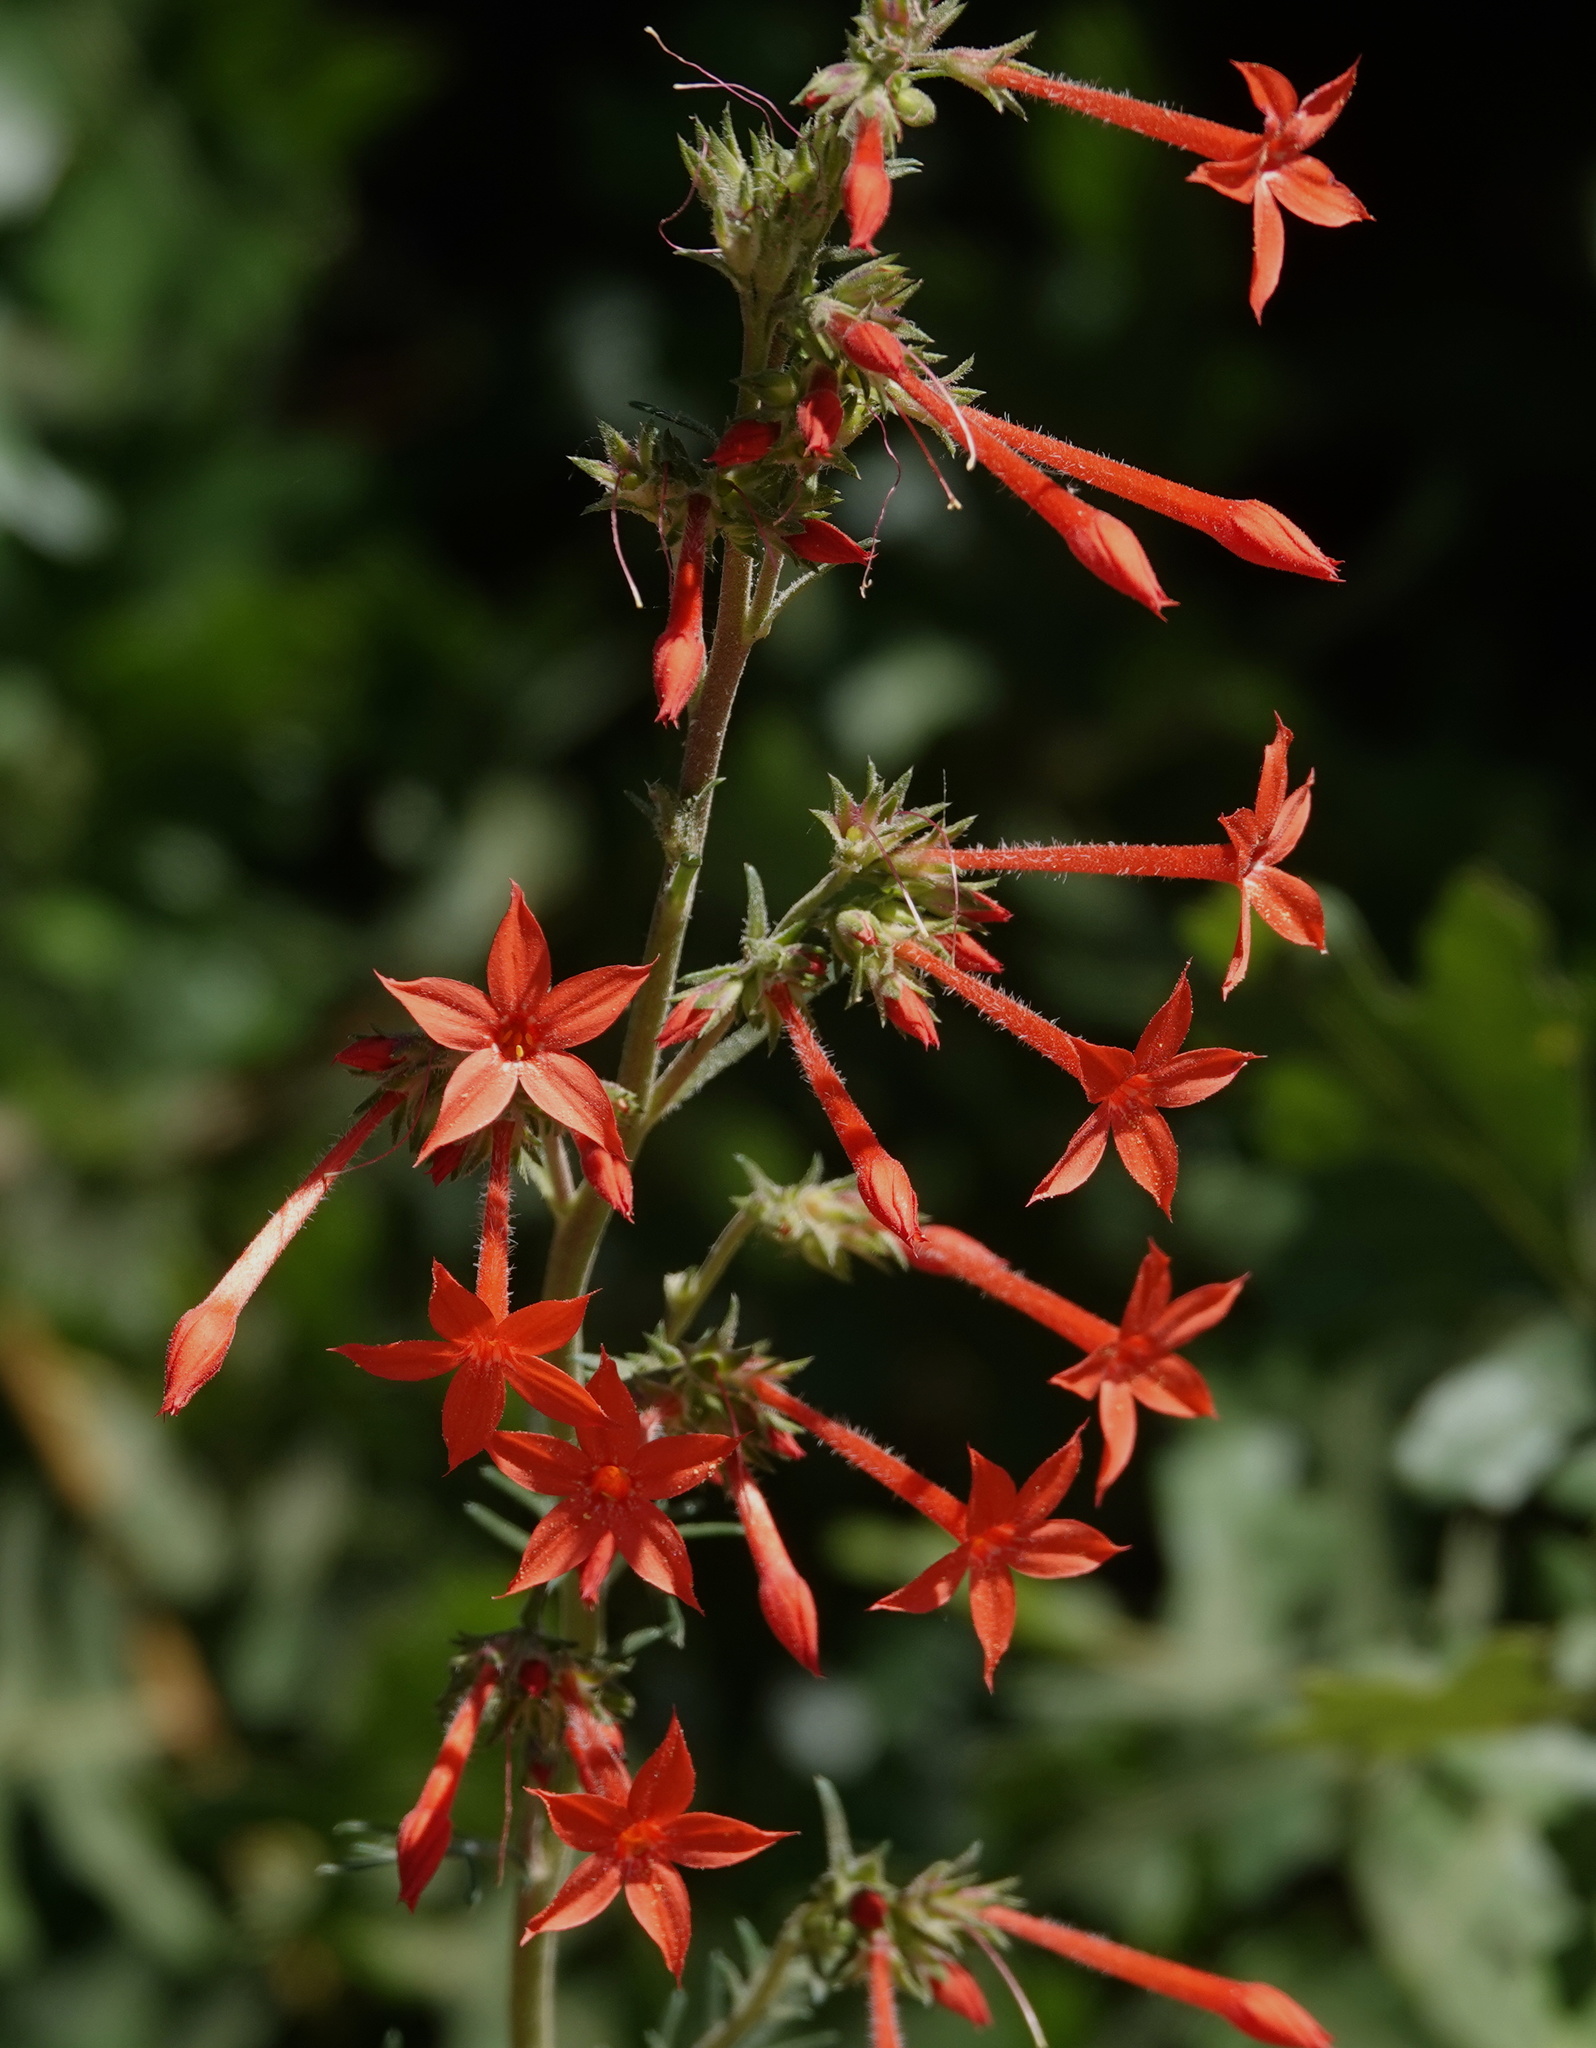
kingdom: Plantae
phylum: Tracheophyta
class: Magnoliopsida
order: Ericales
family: Polemoniaceae
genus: Ipomopsis
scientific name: Ipomopsis arizonica
